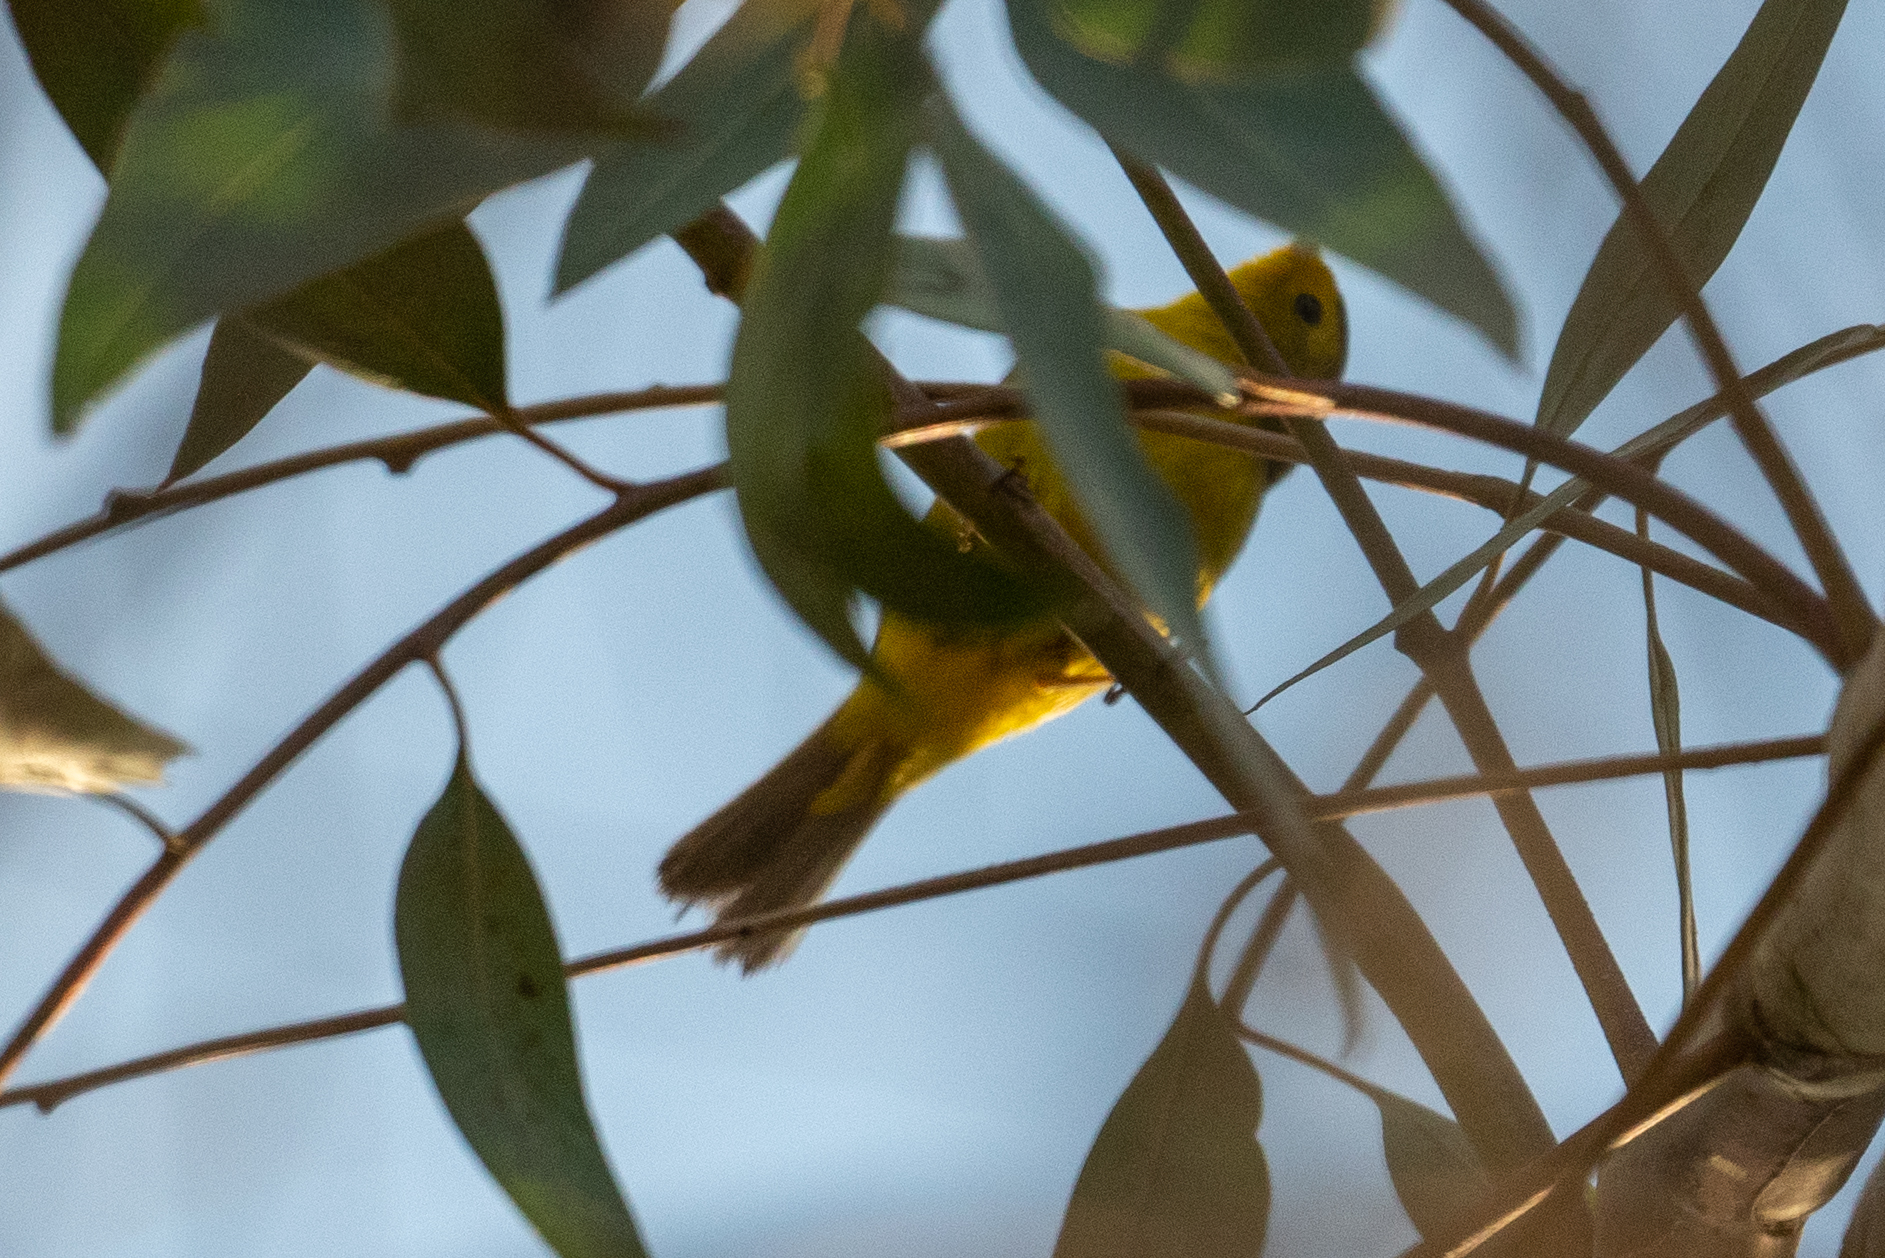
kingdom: Animalia
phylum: Chordata
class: Aves
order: Passeriformes
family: Parulidae
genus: Cardellina
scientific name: Cardellina pusilla
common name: Wilson's warbler
